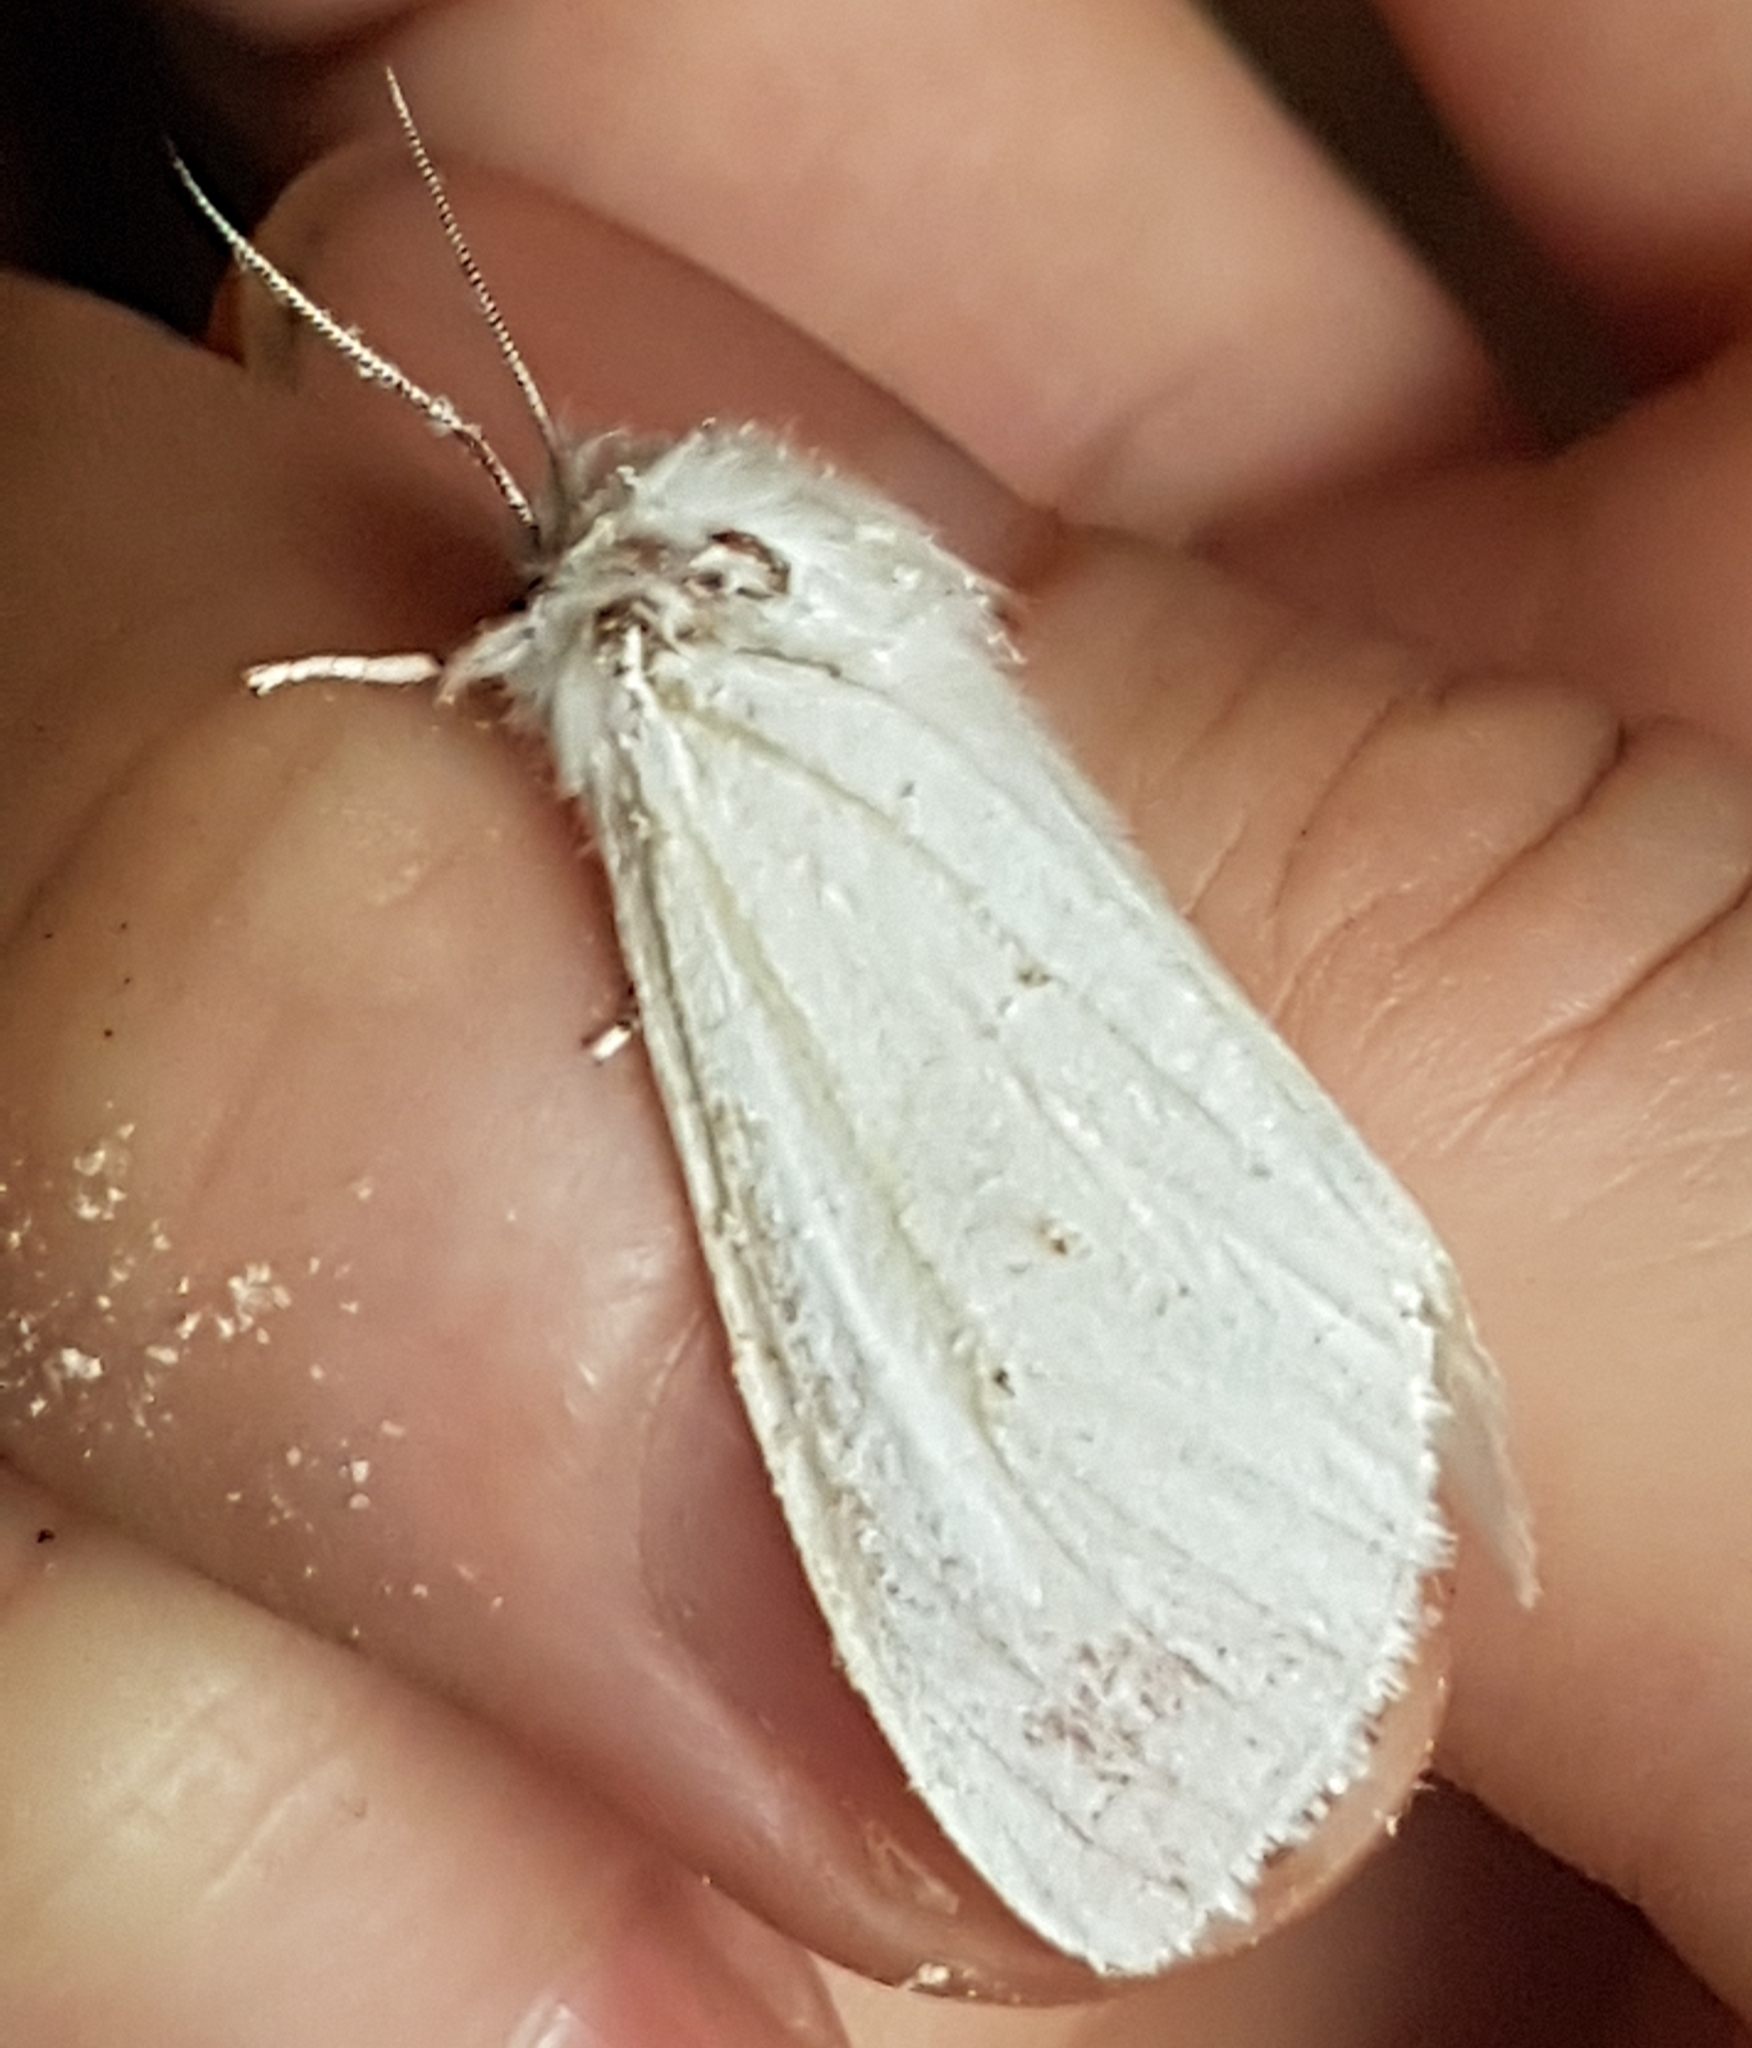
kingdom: Animalia
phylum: Arthropoda
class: Insecta
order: Lepidoptera
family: Erebidae
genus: Spilosoma
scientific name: Spilosoma virginica
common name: Virginia tiger moth
